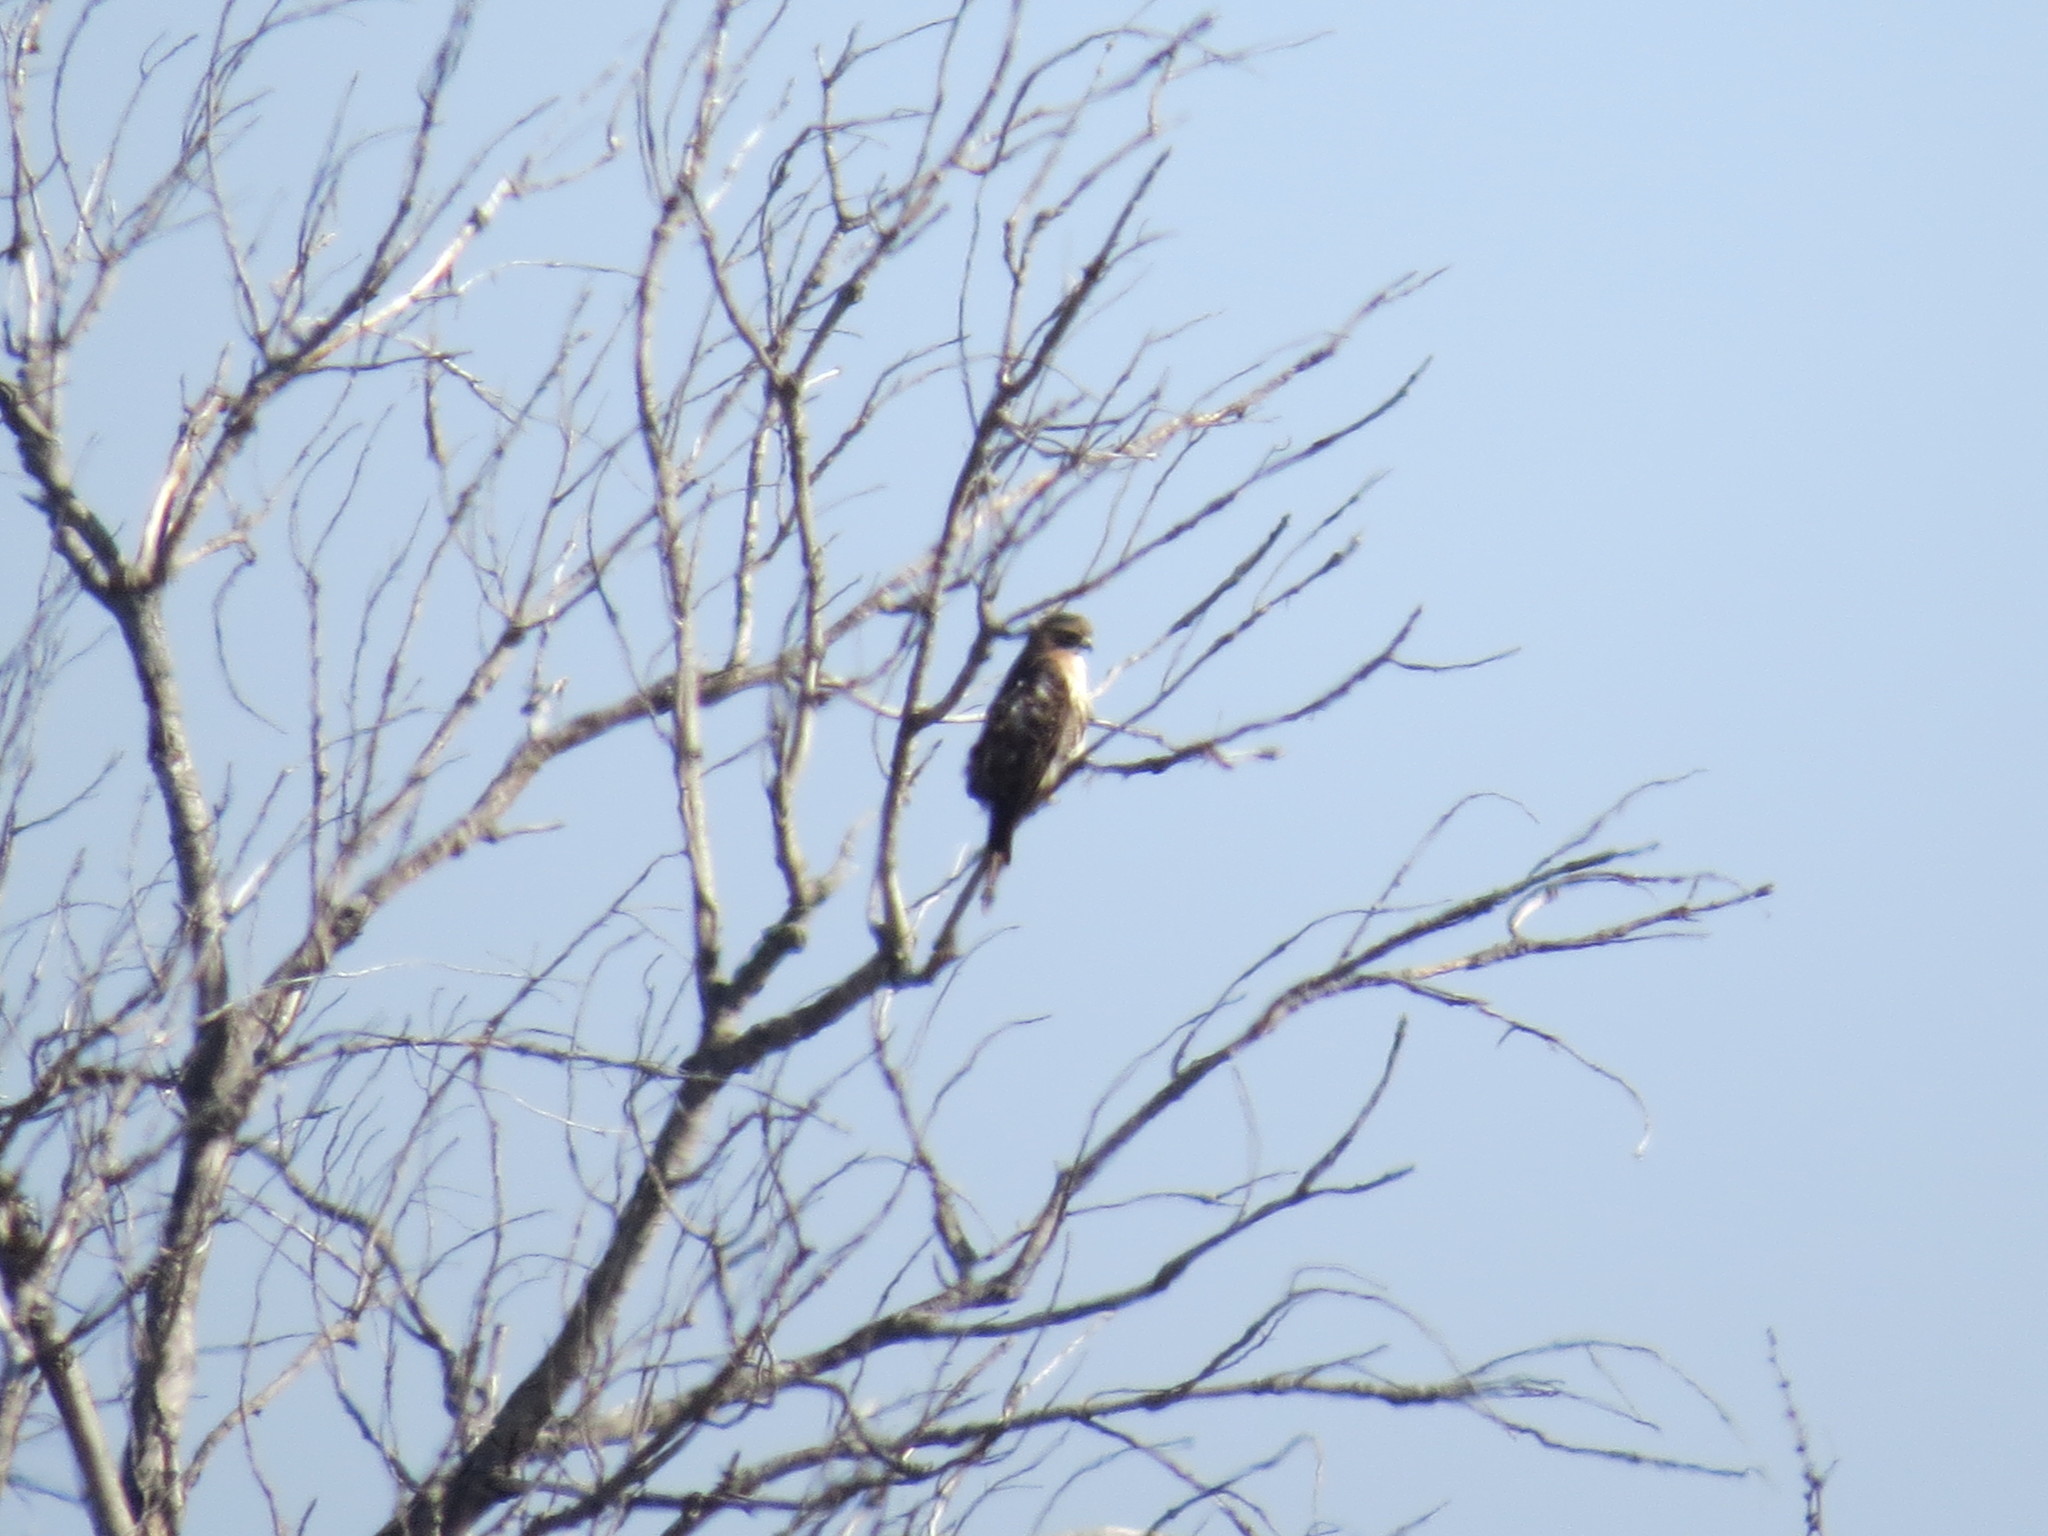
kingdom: Animalia
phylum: Chordata
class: Aves
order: Accipitriformes
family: Accipitridae
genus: Buteo
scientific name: Buteo jamaicensis
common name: Red-tailed hawk
